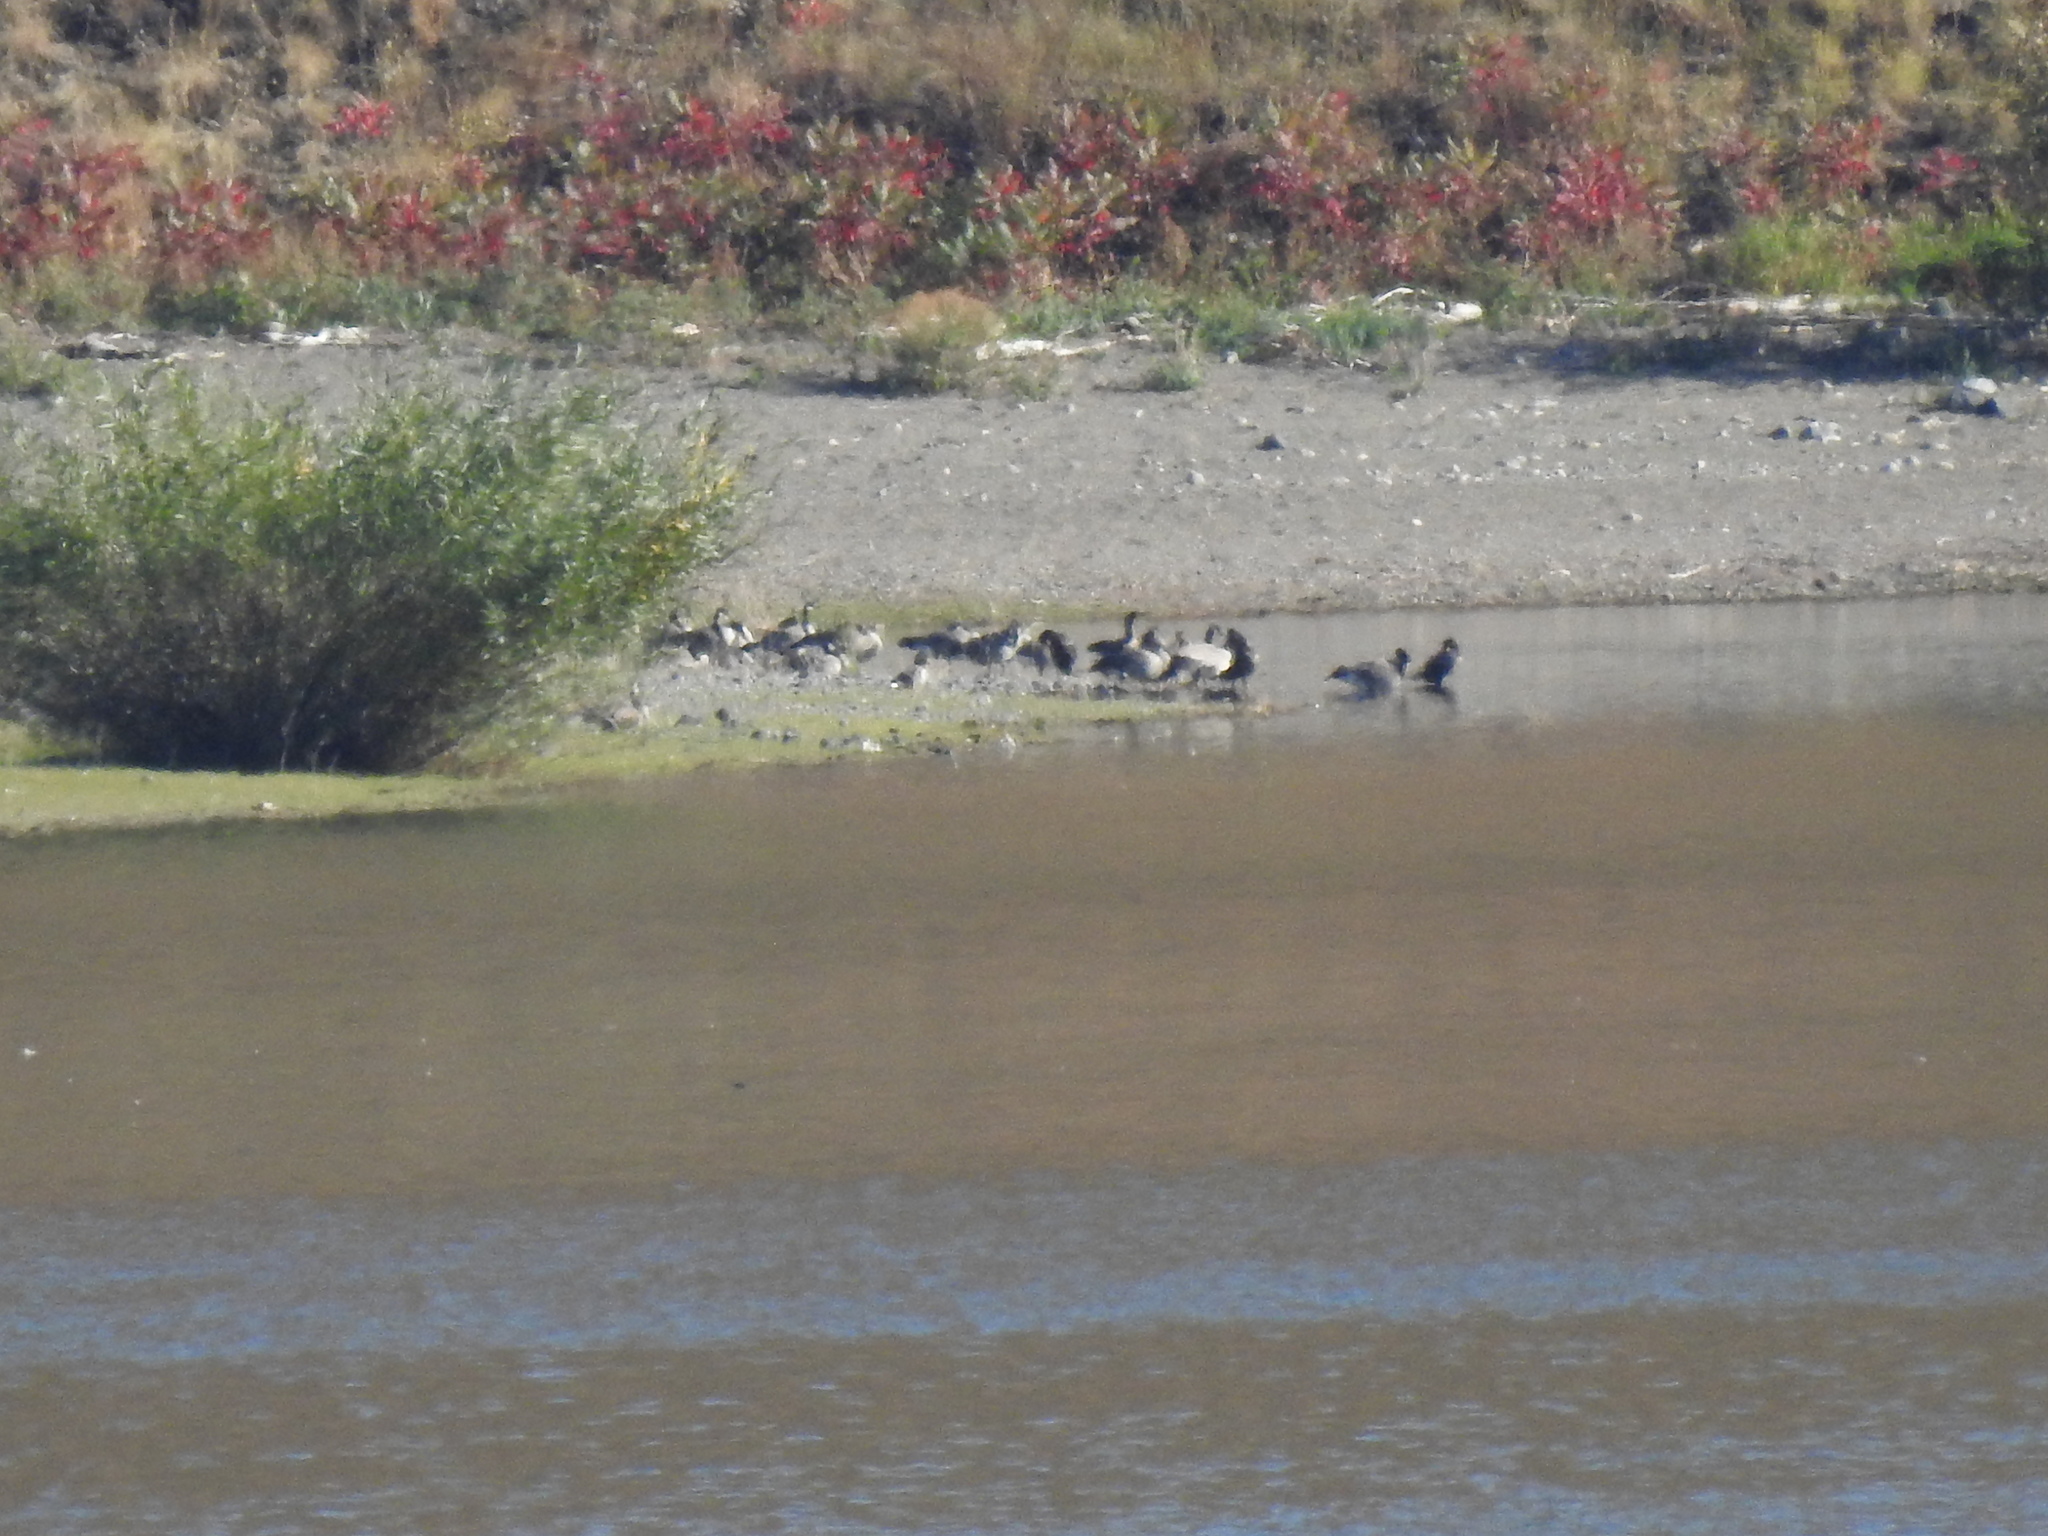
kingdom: Animalia
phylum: Chordata
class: Aves
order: Anseriformes
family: Anatidae
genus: Branta
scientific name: Branta canadensis
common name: Canada goose
